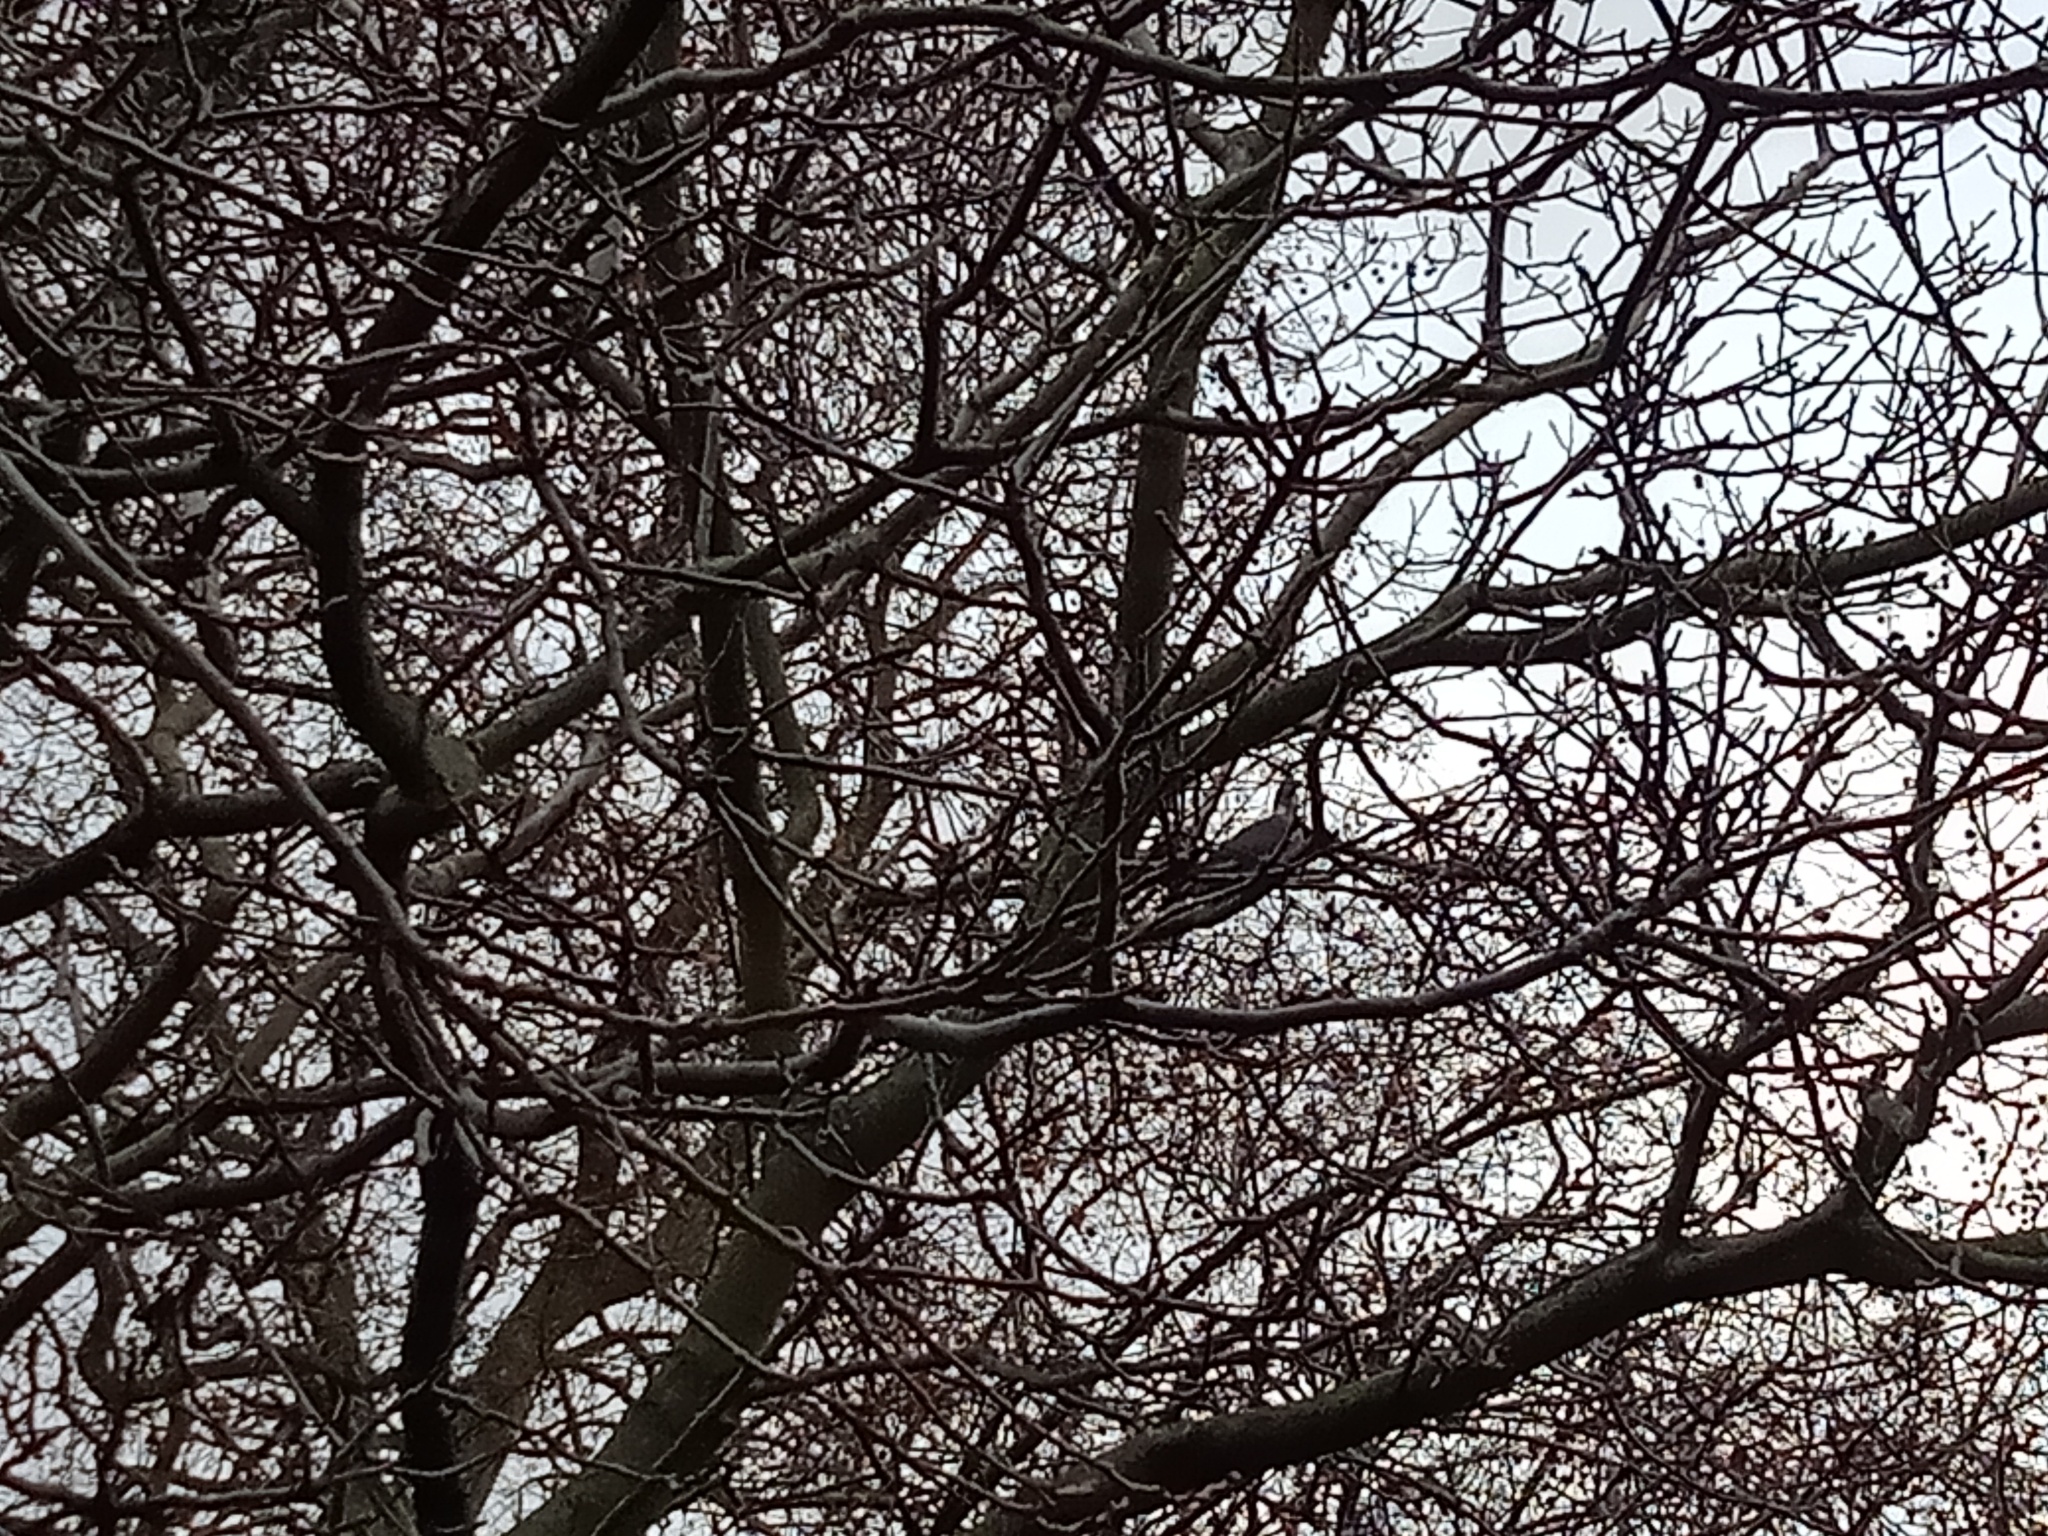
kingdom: Animalia
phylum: Chordata
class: Aves
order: Columbiformes
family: Columbidae
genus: Columba
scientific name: Columba palumbus
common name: Common wood pigeon
